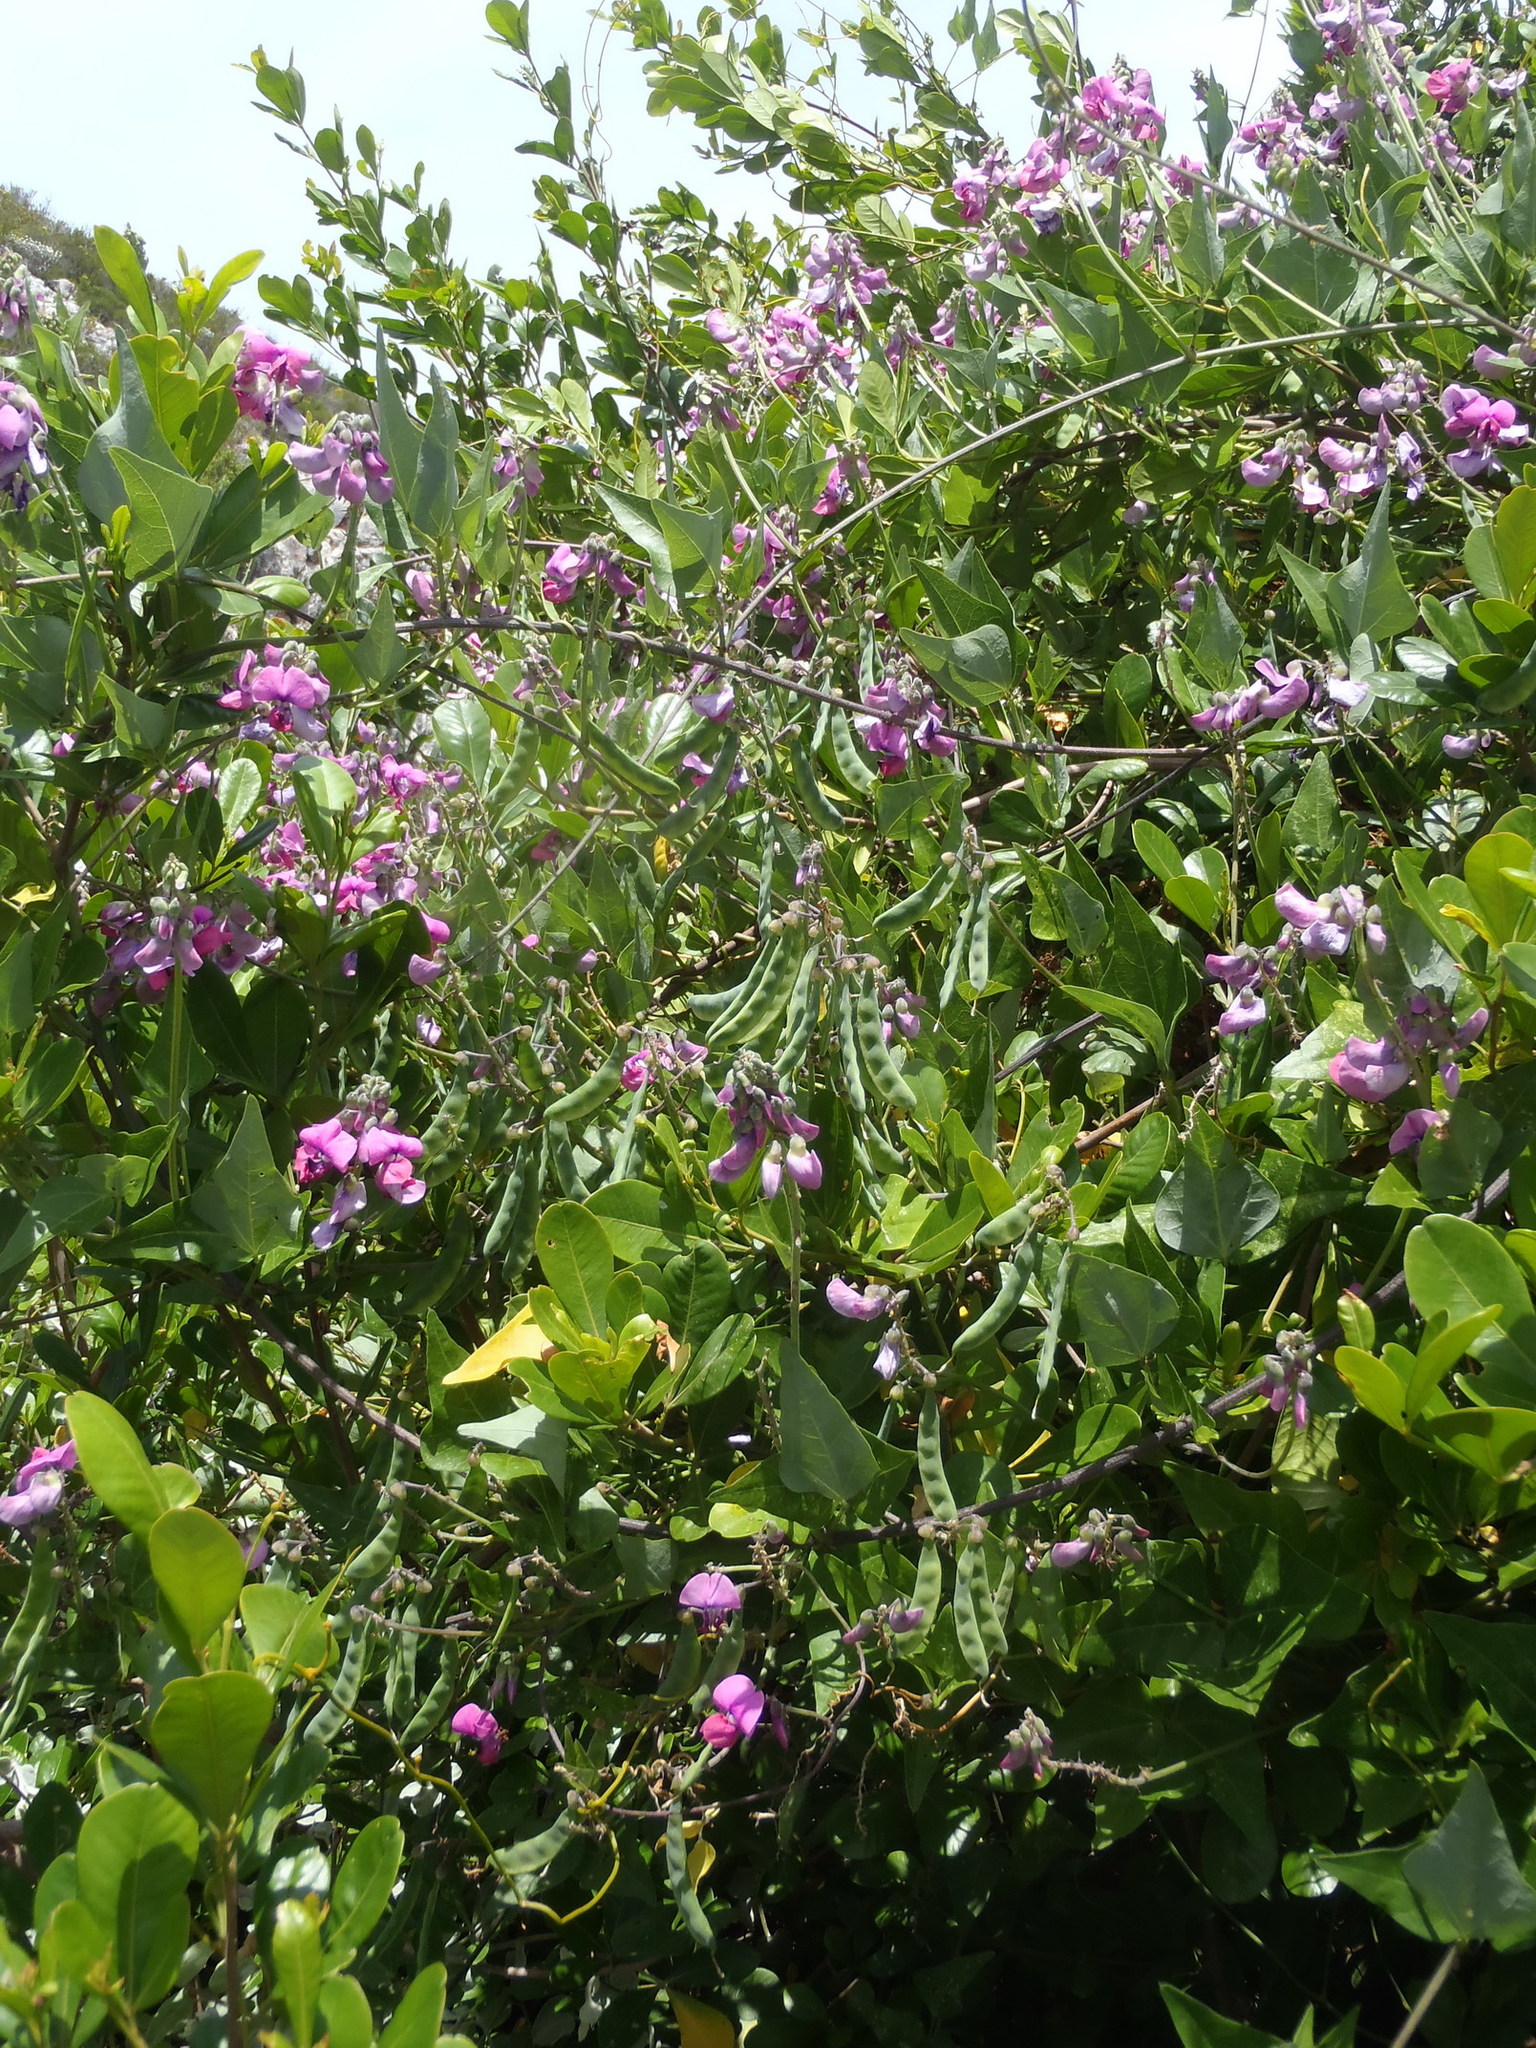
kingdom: Plantae
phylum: Tracheophyta
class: Magnoliopsida
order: Fabales
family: Fabaceae
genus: Dipogon
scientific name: Dipogon lignosus
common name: Okie bean
